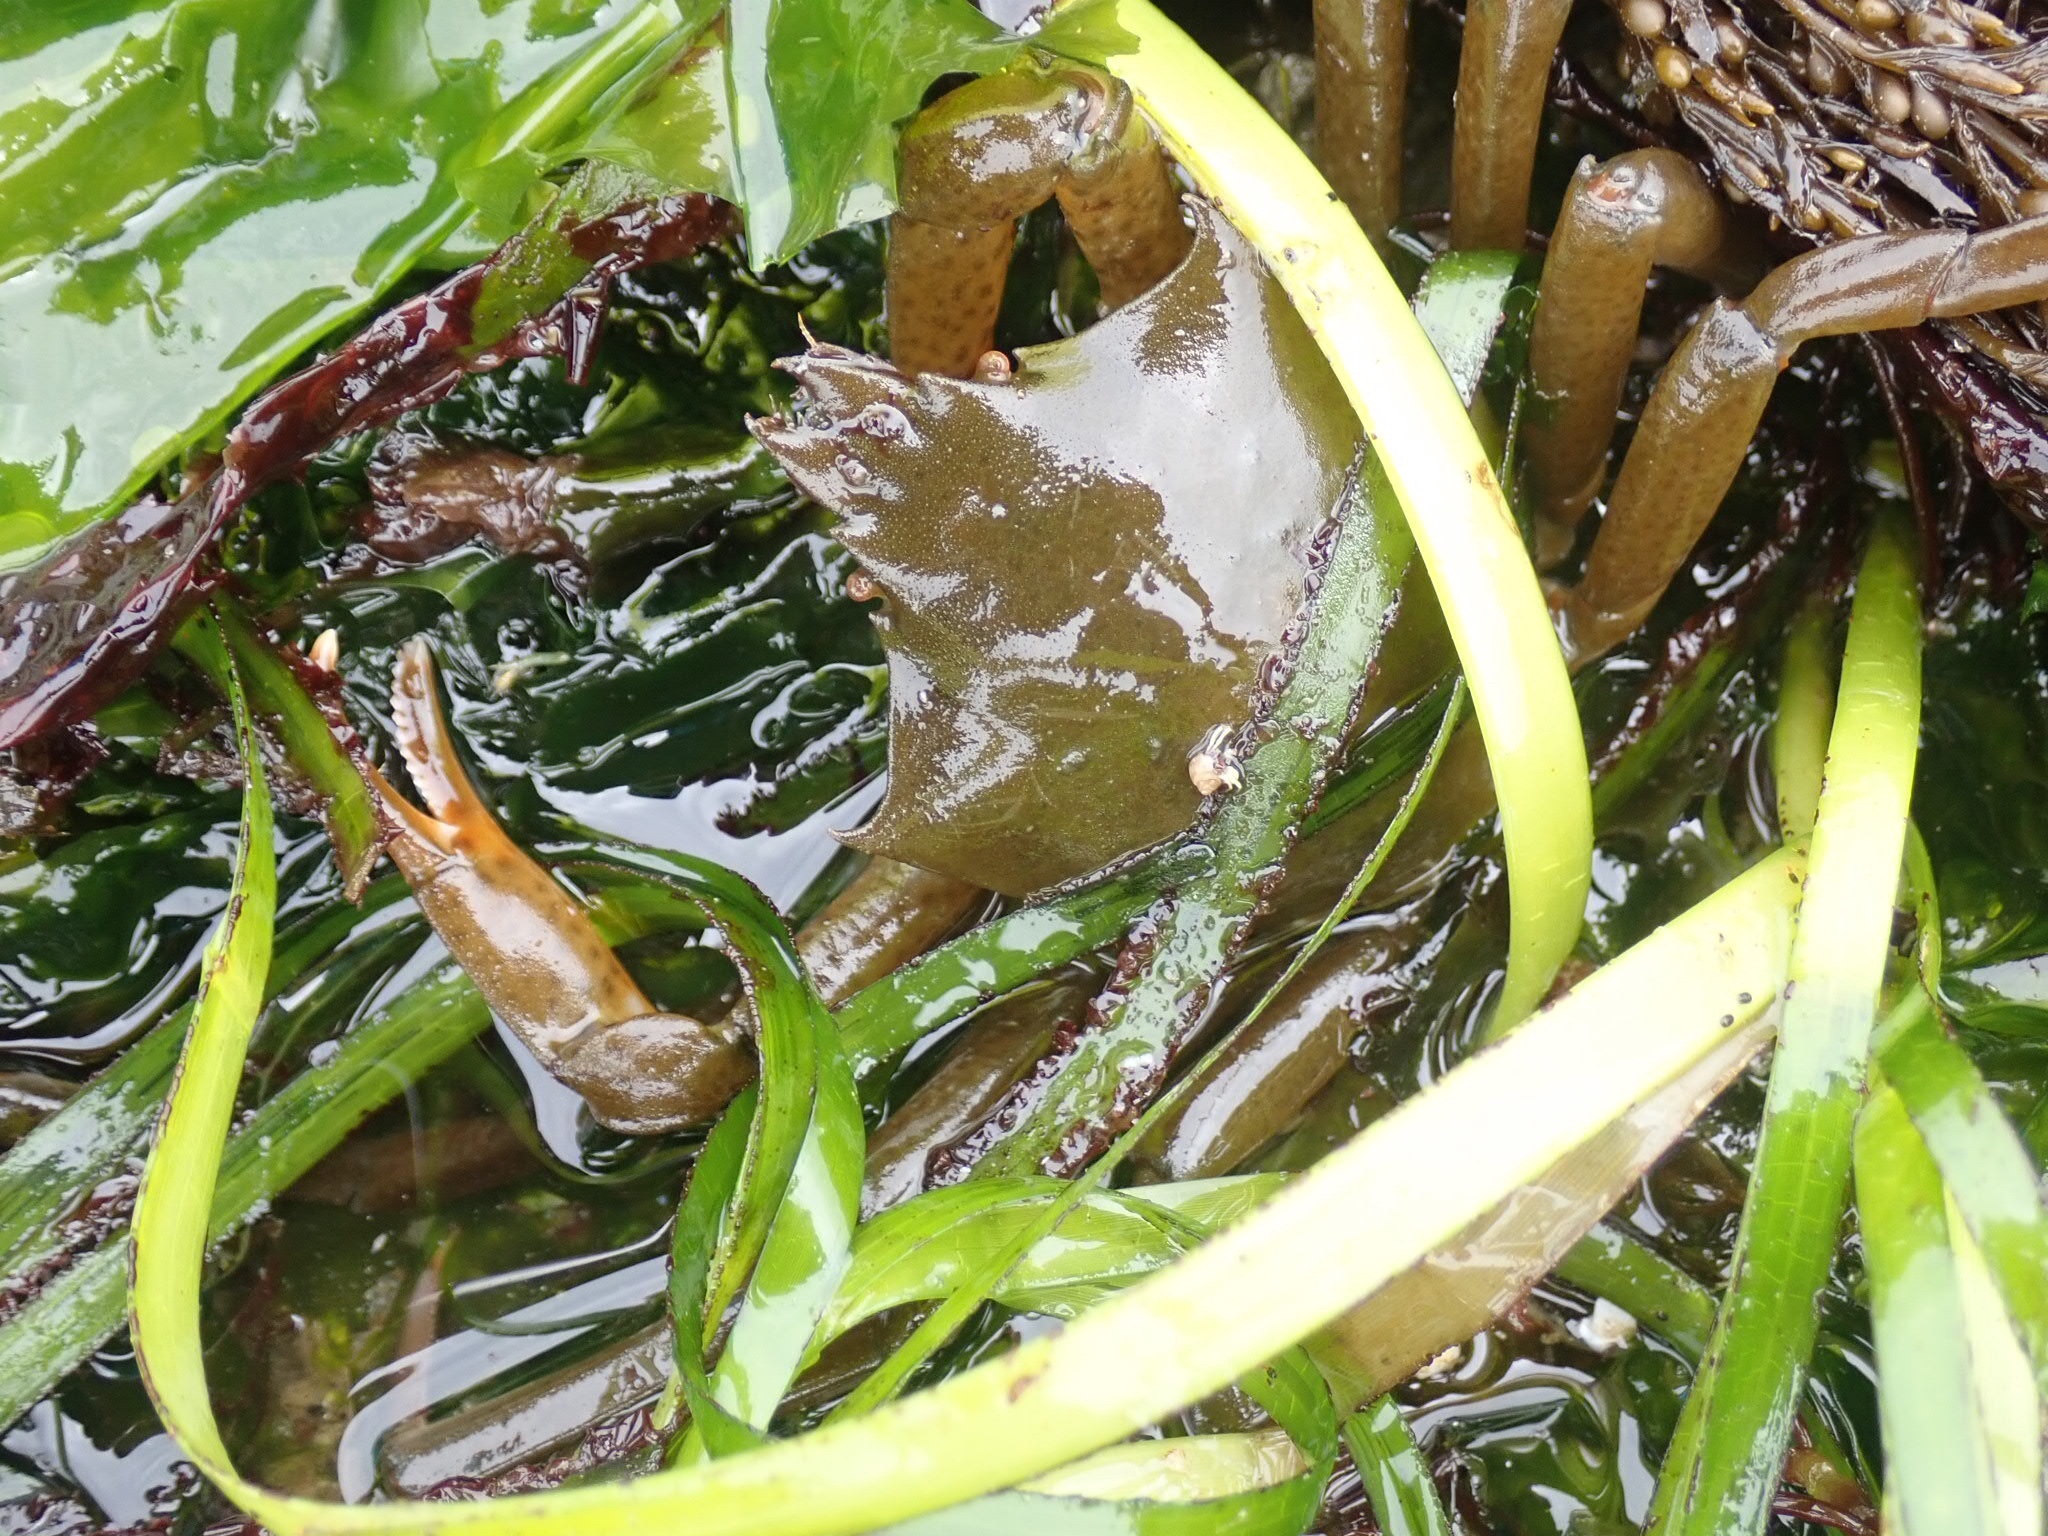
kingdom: Animalia
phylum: Arthropoda
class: Malacostraca
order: Decapoda
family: Epialtidae
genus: Pugettia
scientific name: Pugettia producta
